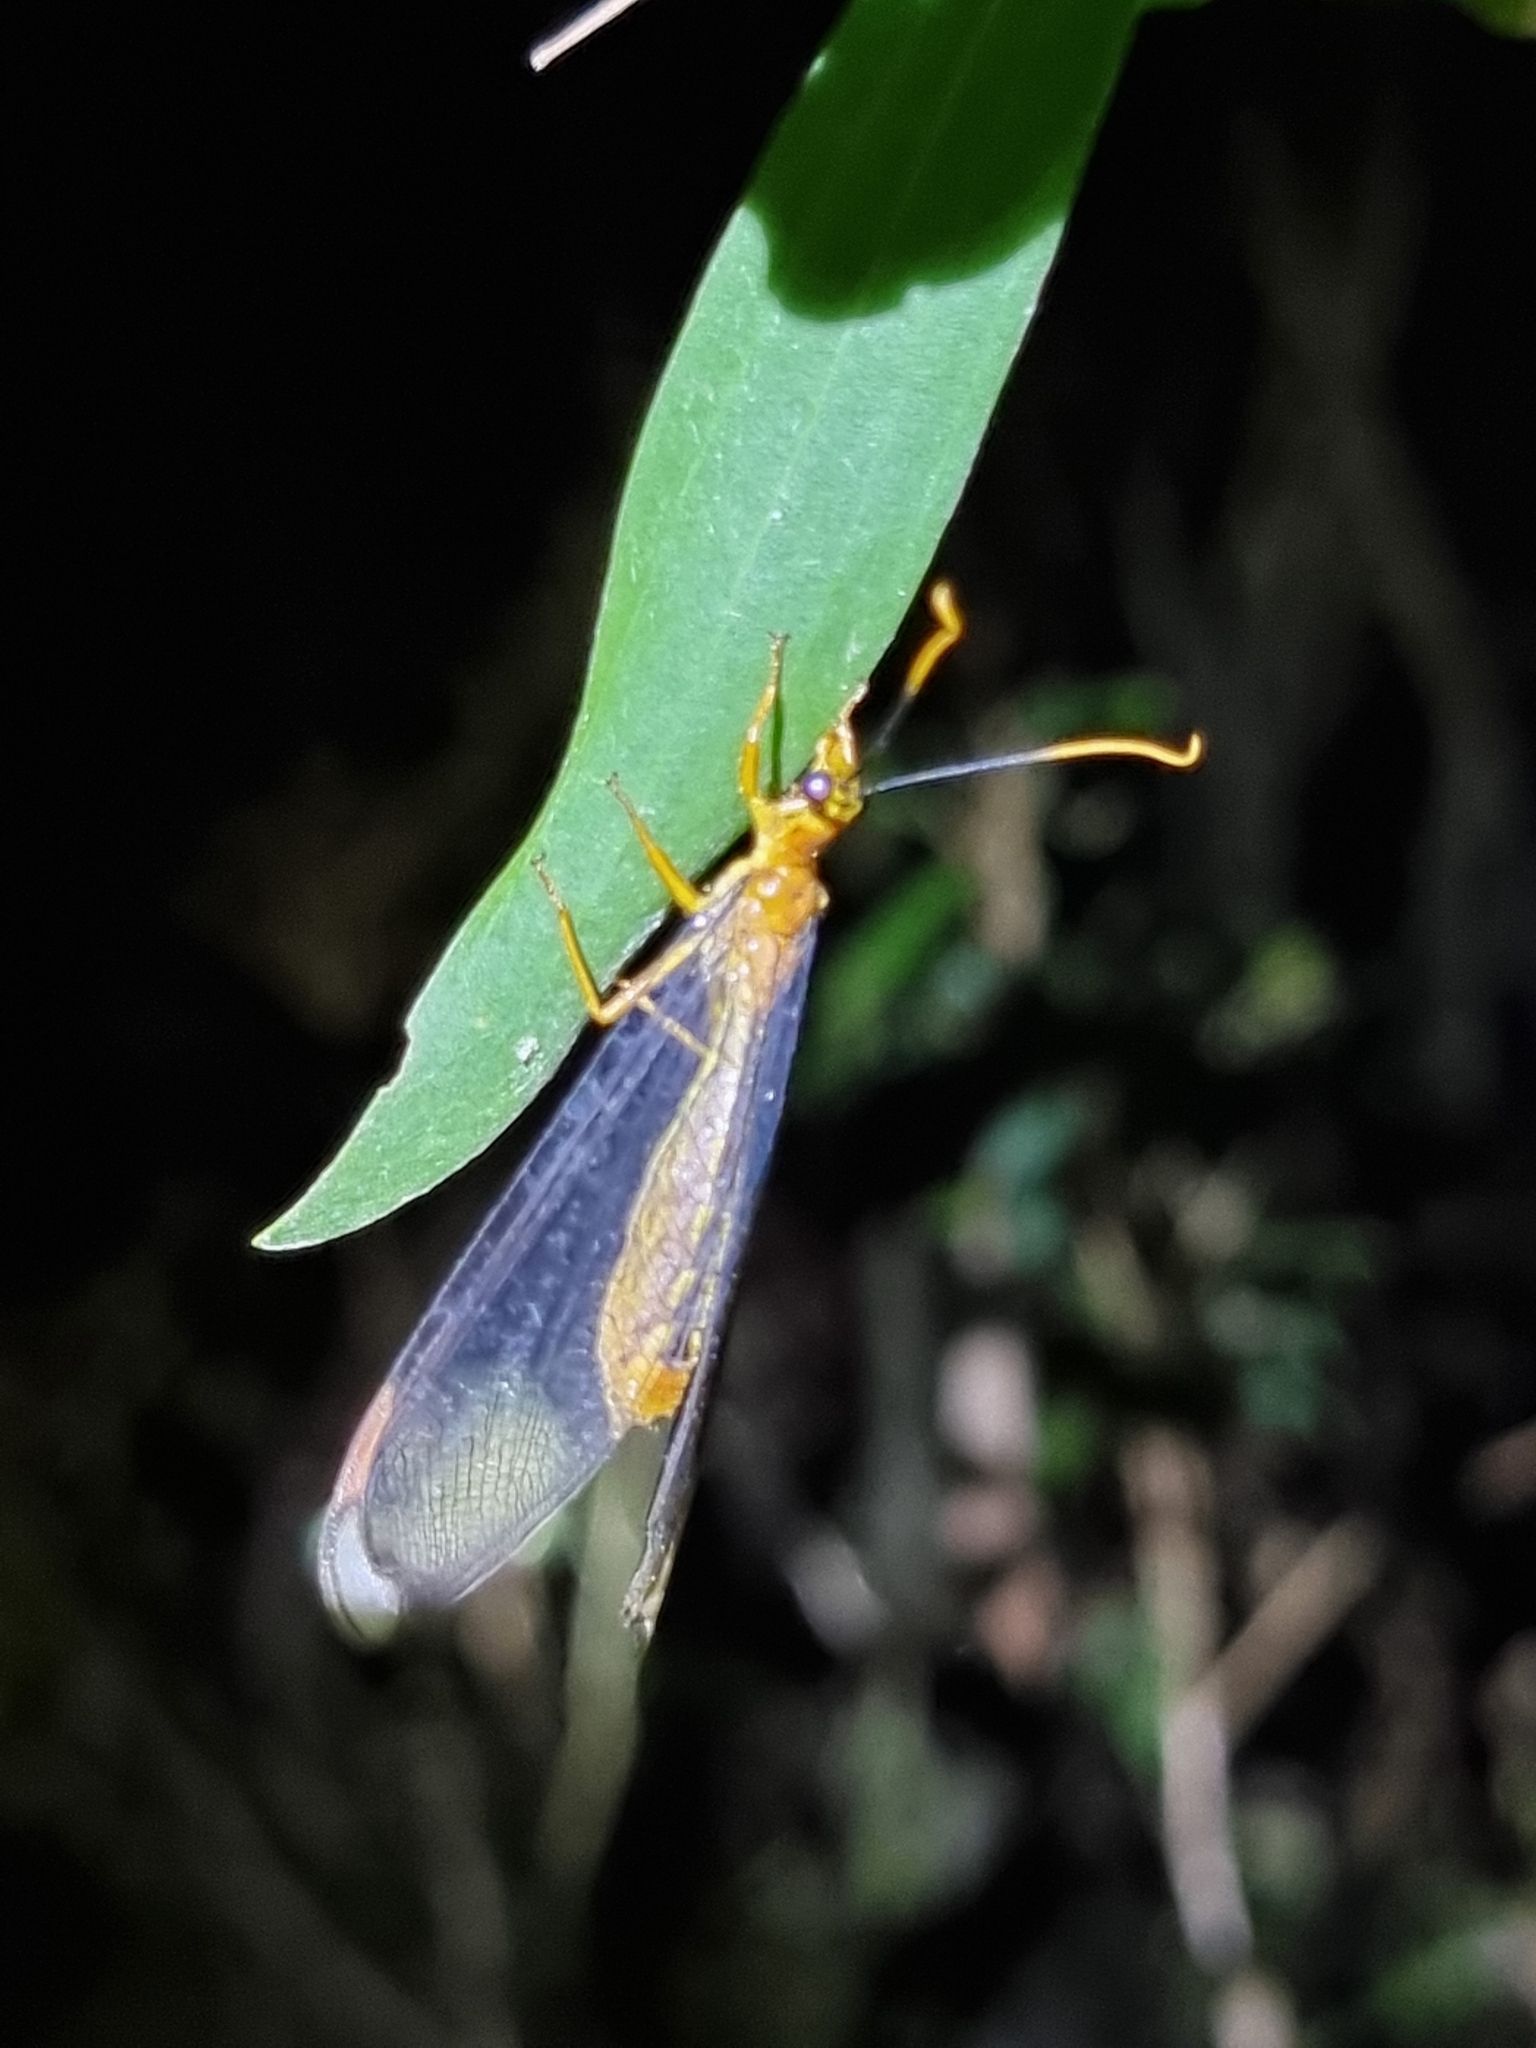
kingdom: Animalia
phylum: Arthropoda
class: Insecta
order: Neuroptera
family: Nymphidae
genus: Nymphes
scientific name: Nymphes myrmeleonoides
